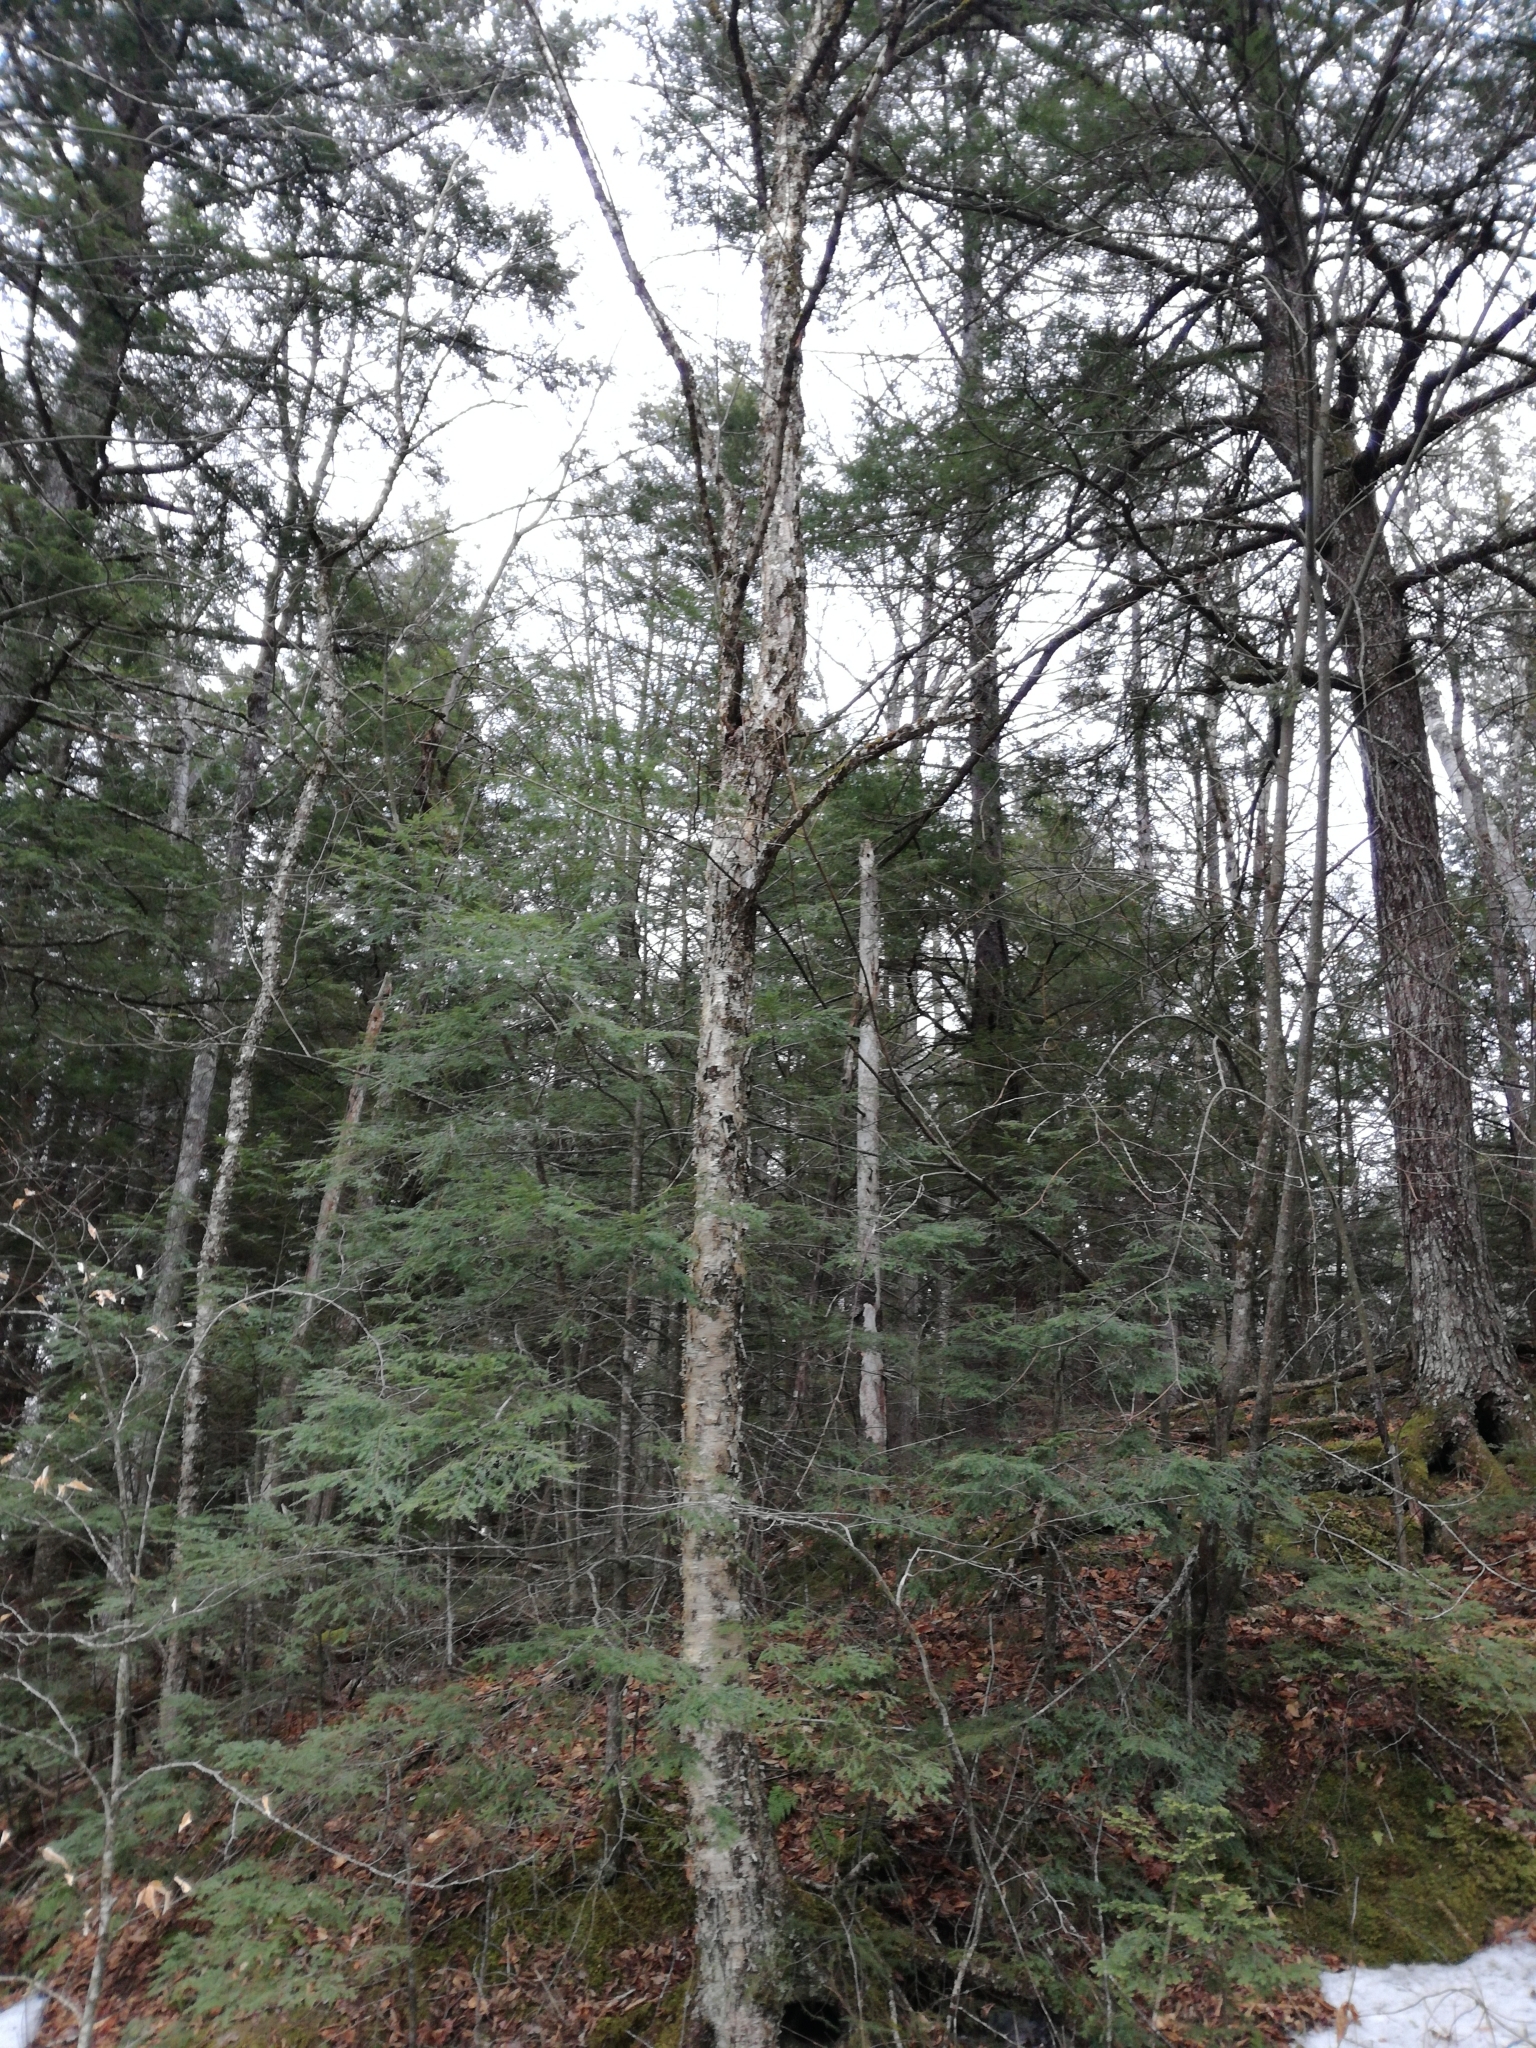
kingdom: Plantae
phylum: Tracheophyta
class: Magnoliopsida
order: Fagales
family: Betulaceae
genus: Betula
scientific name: Betula alleghaniensis
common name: Yellow birch
